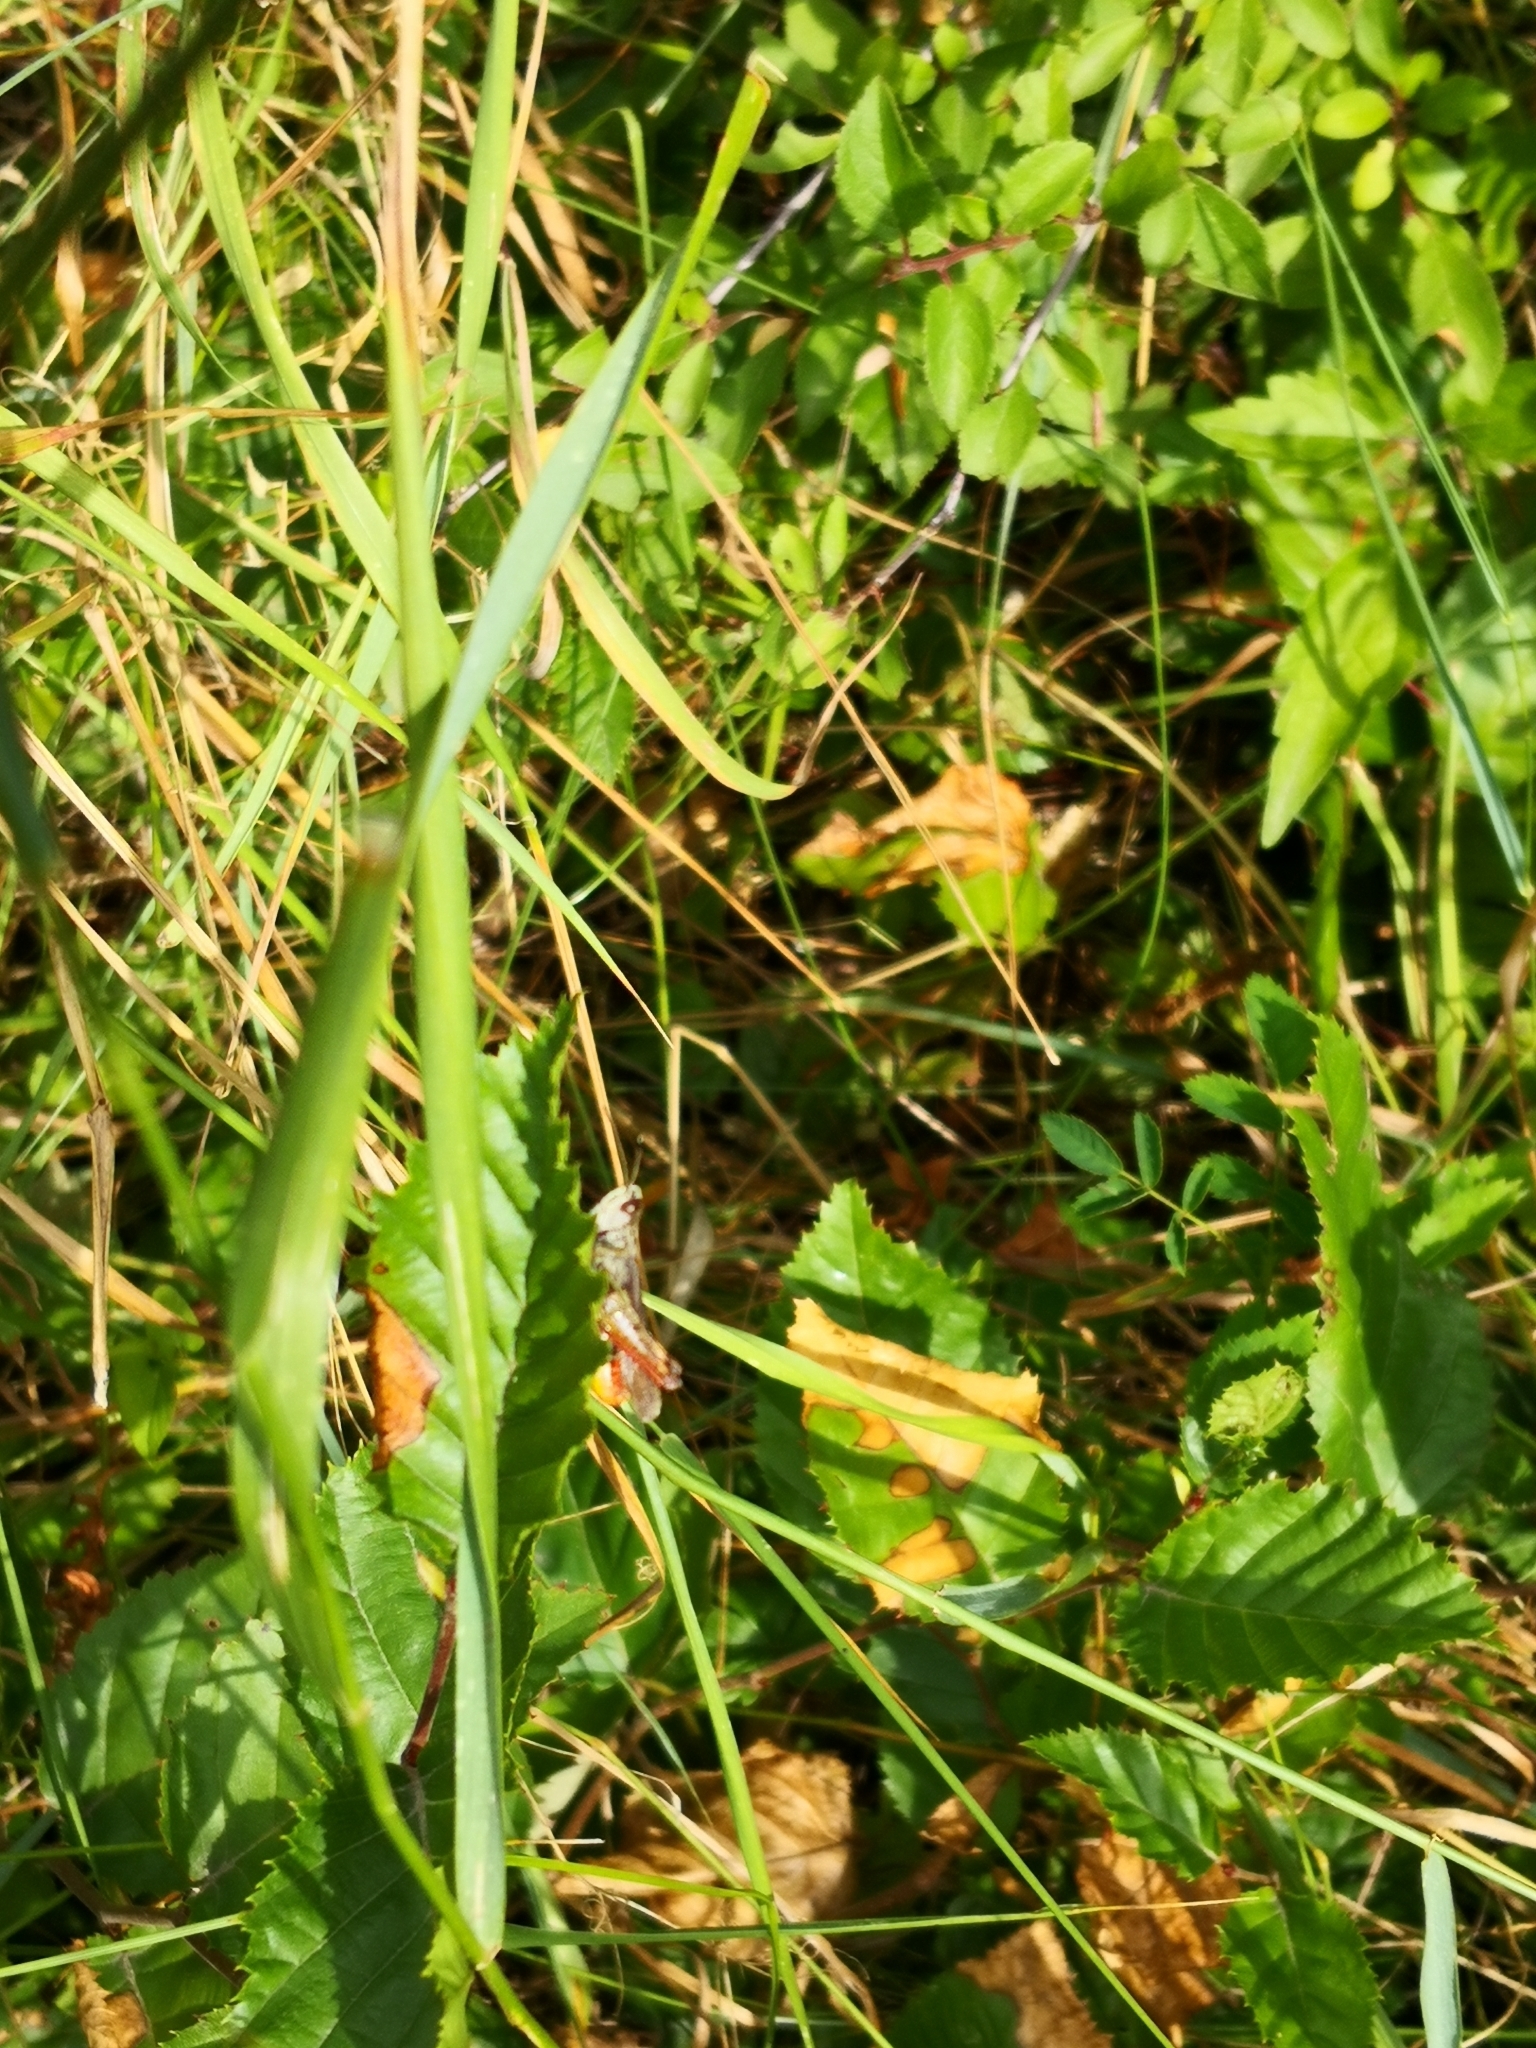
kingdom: Animalia
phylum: Arthropoda
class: Insecta
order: Orthoptera
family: Acrididae
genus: Gomphocerippus
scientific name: Gomphocerippus rufus
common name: Rufous grasshopper
